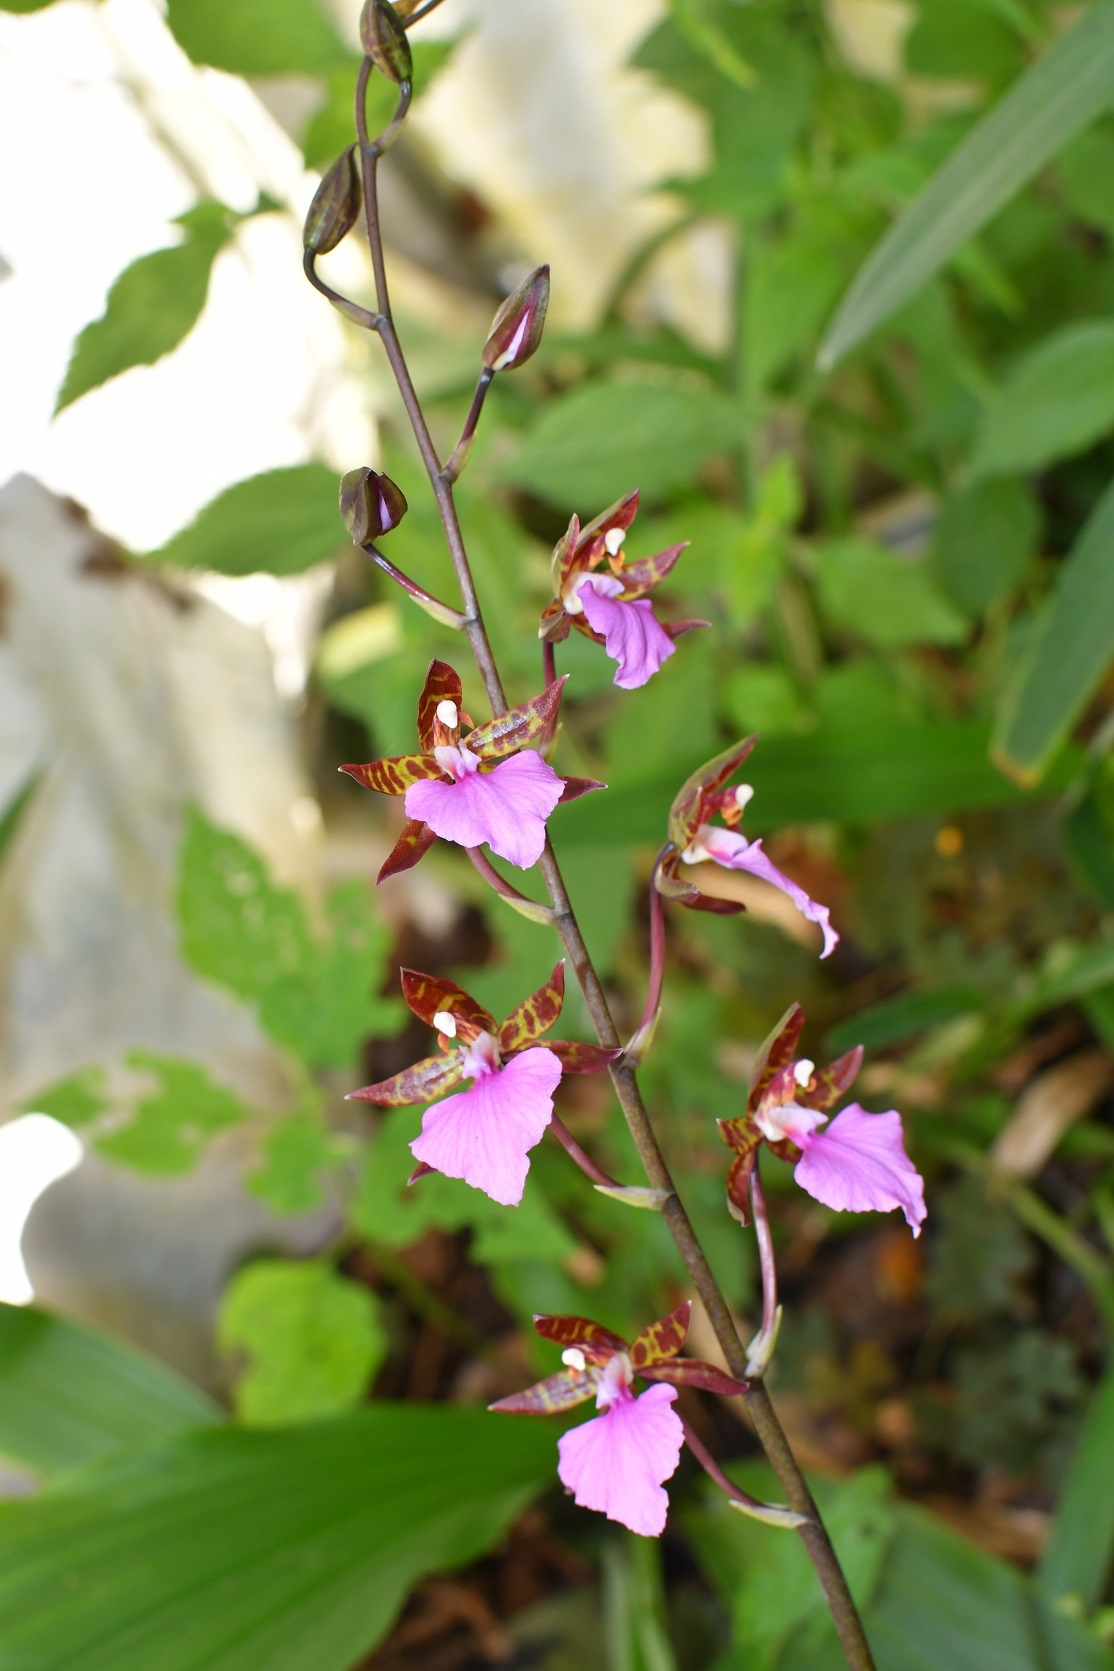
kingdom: Plantae
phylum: Tracheophyta
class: Liliopsida
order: Asparagales
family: Orchidaceae
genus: Rhynchostele
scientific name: Rhynchostele bictoniensis
